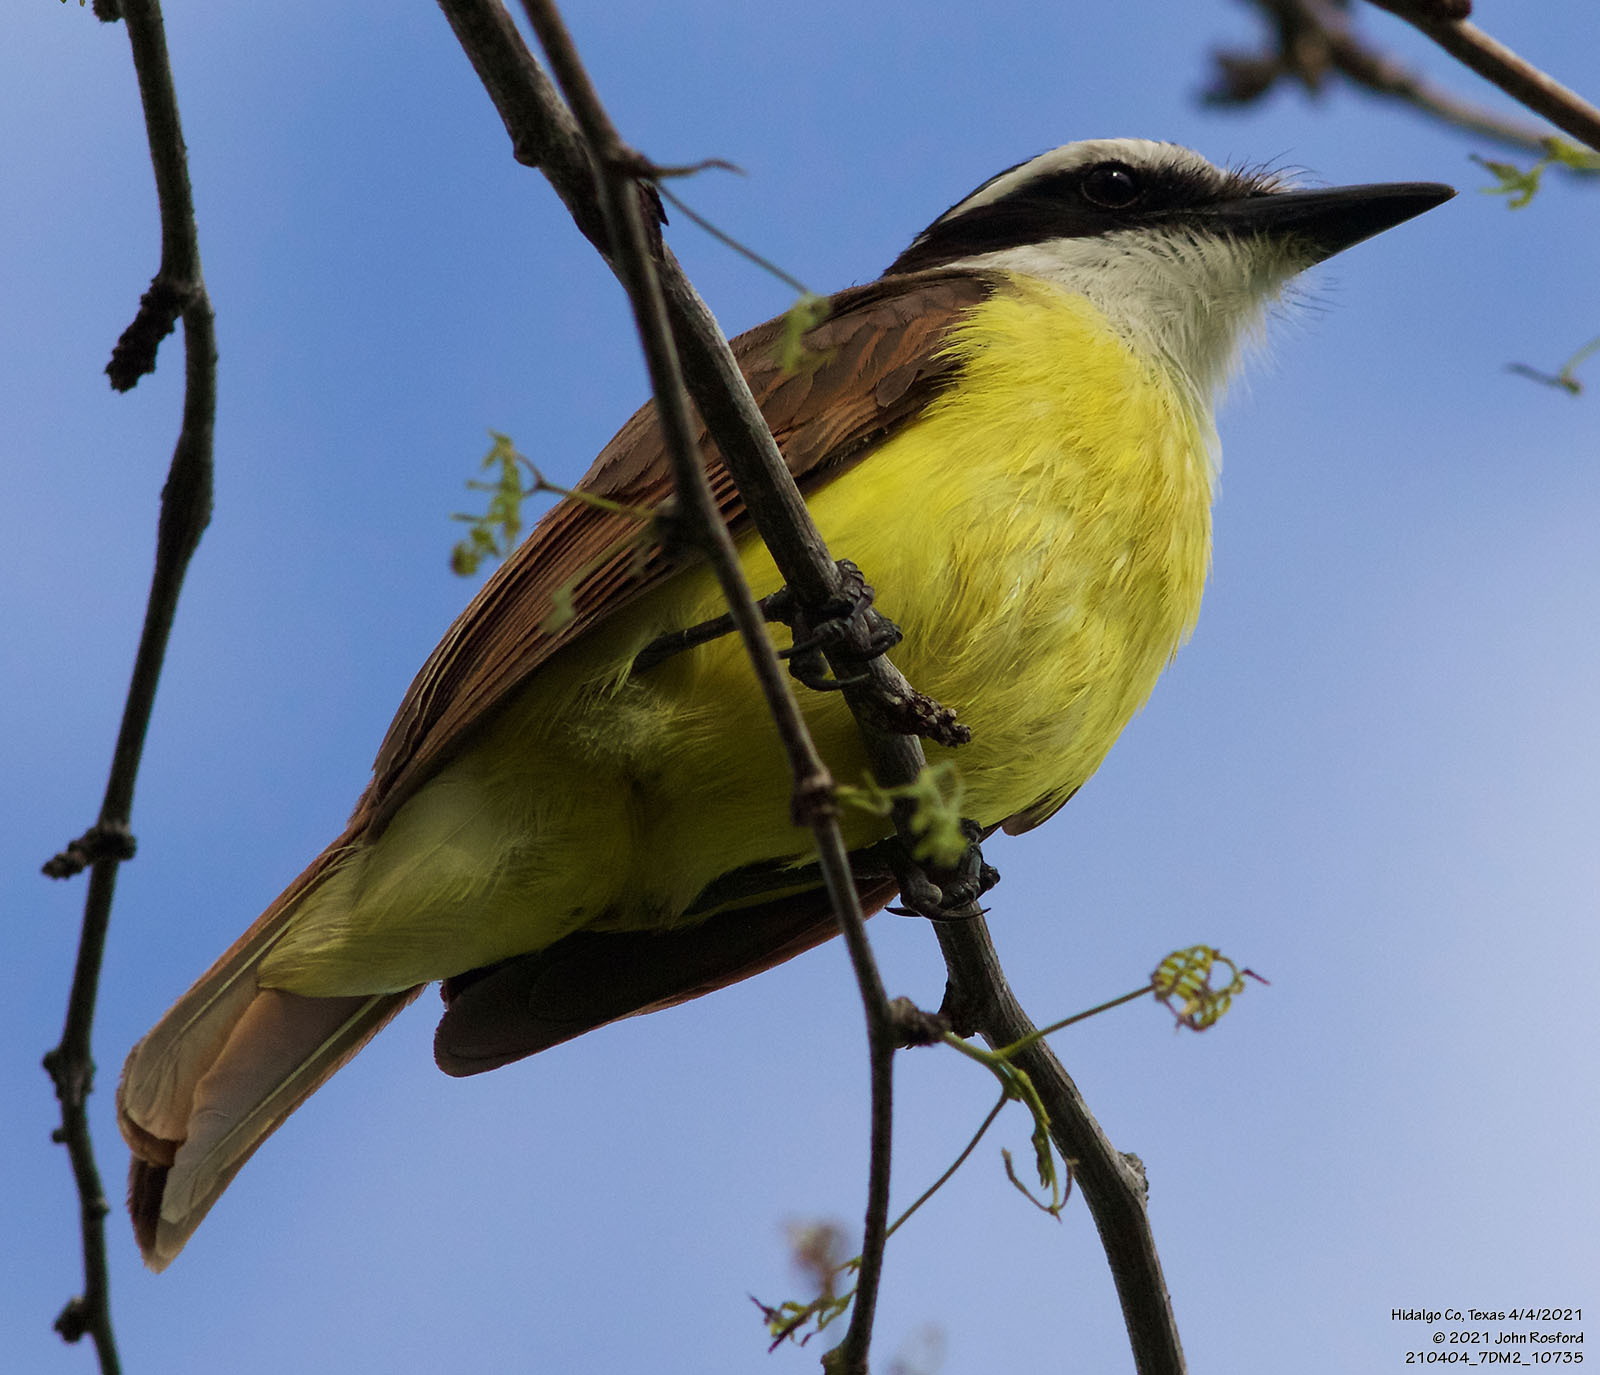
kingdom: Animalia
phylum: Chordata
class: Aves
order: Passeriformes
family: Tyrannidae
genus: Pitangus
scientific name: Pitangus sulphuratus
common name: Great kiskadee
